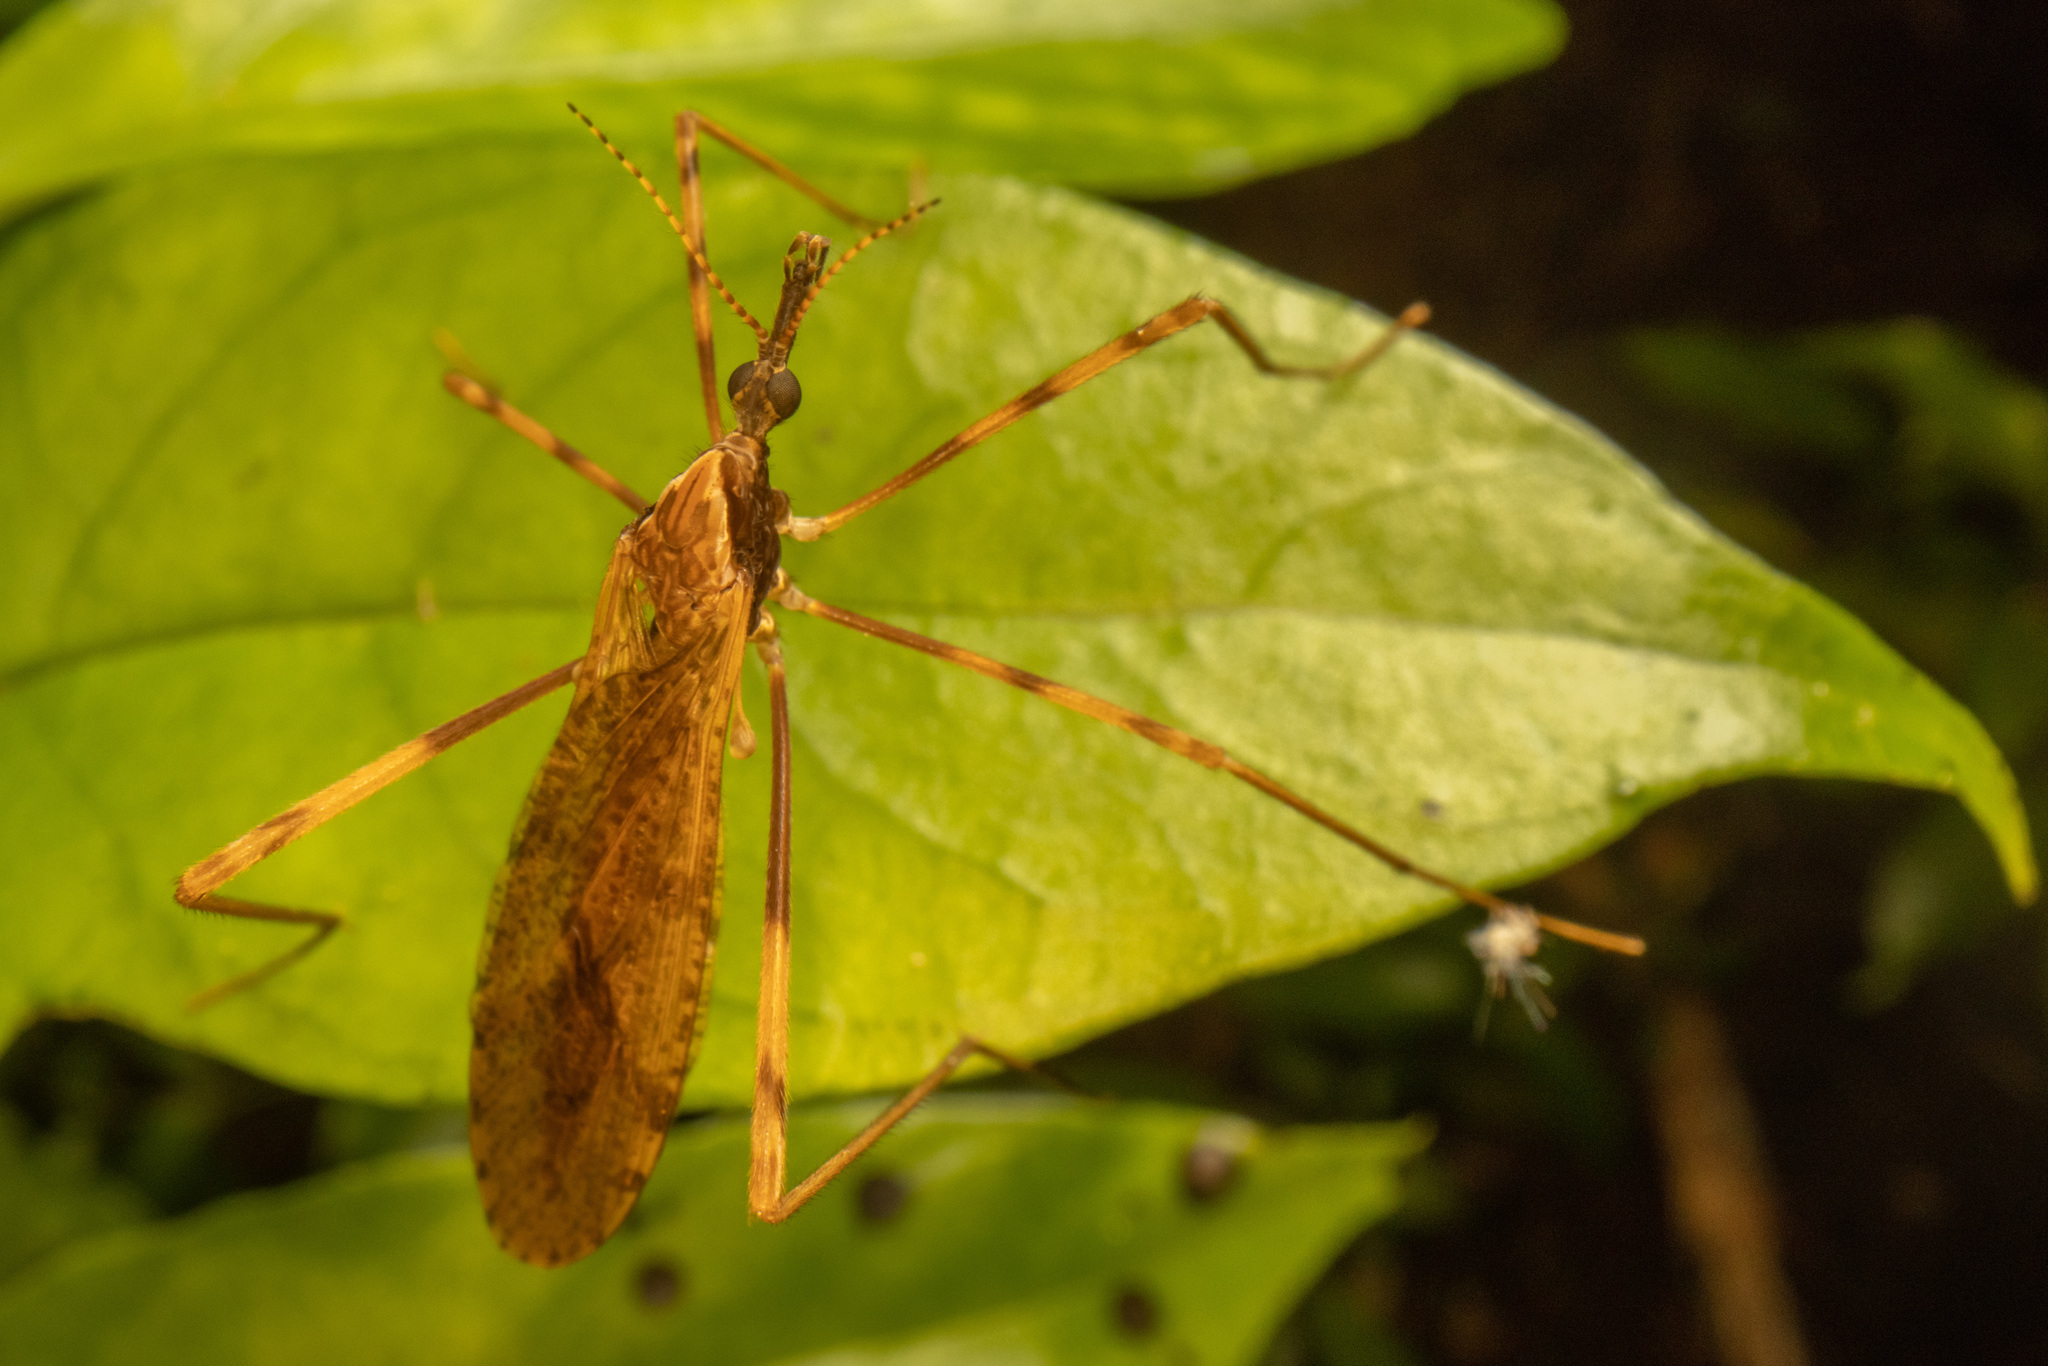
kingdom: Animalia
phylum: Arthropoda
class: Insecta
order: Diptera
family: Limoniidae
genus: Rhamphophila
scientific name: Rhamphophila sinistra
